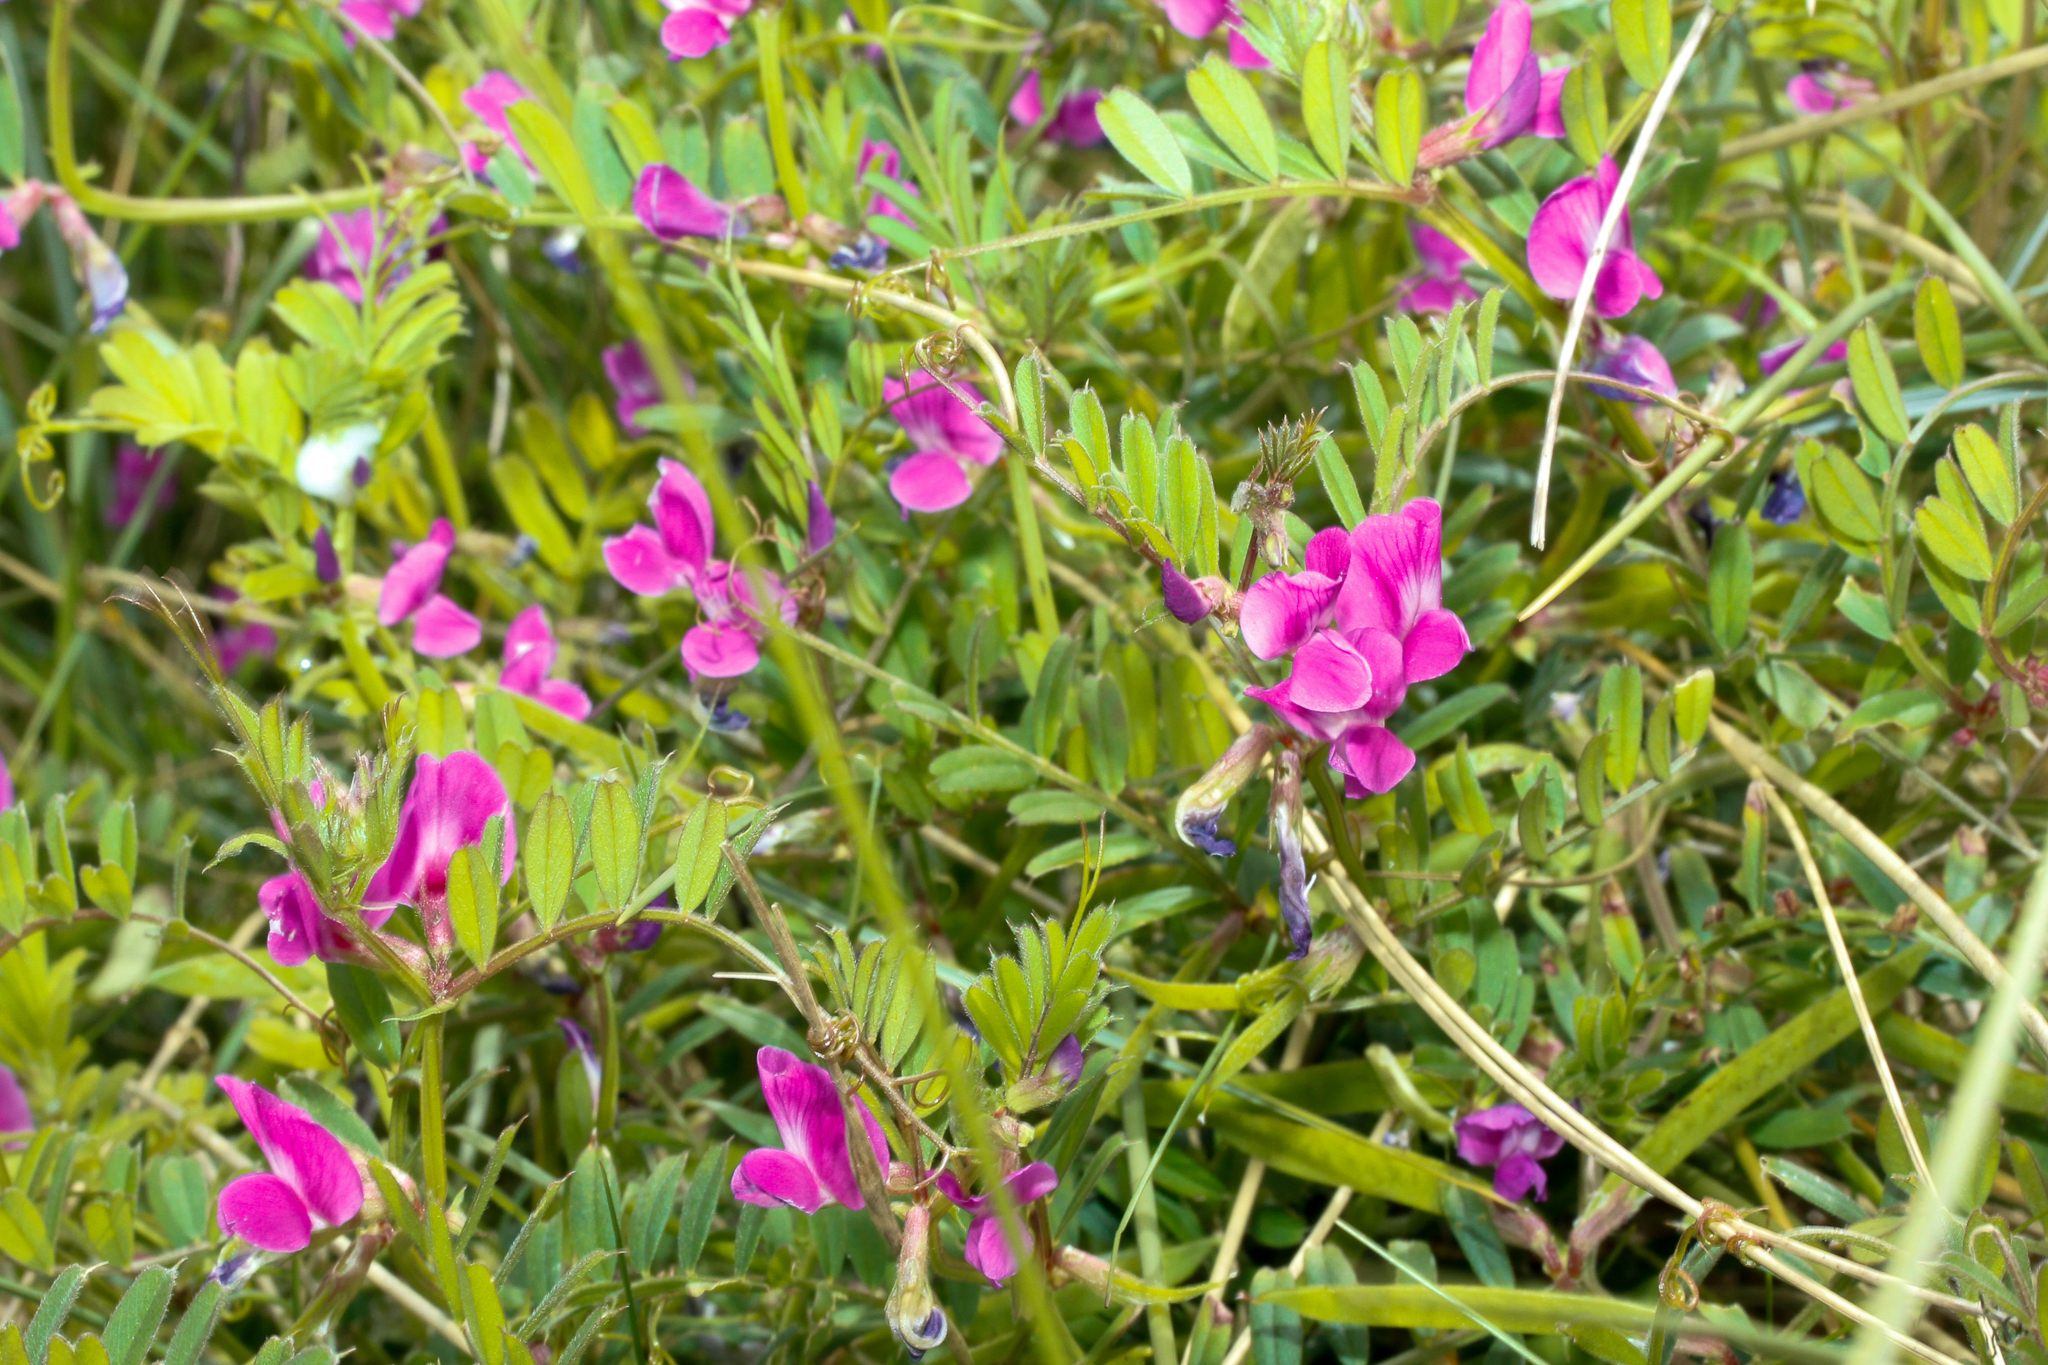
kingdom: Plantae
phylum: Tracheophyta
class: Magnoliopsida
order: Fabales
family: Fabaceae
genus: Vicia
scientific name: Vicia sativa
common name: Garden vetch
